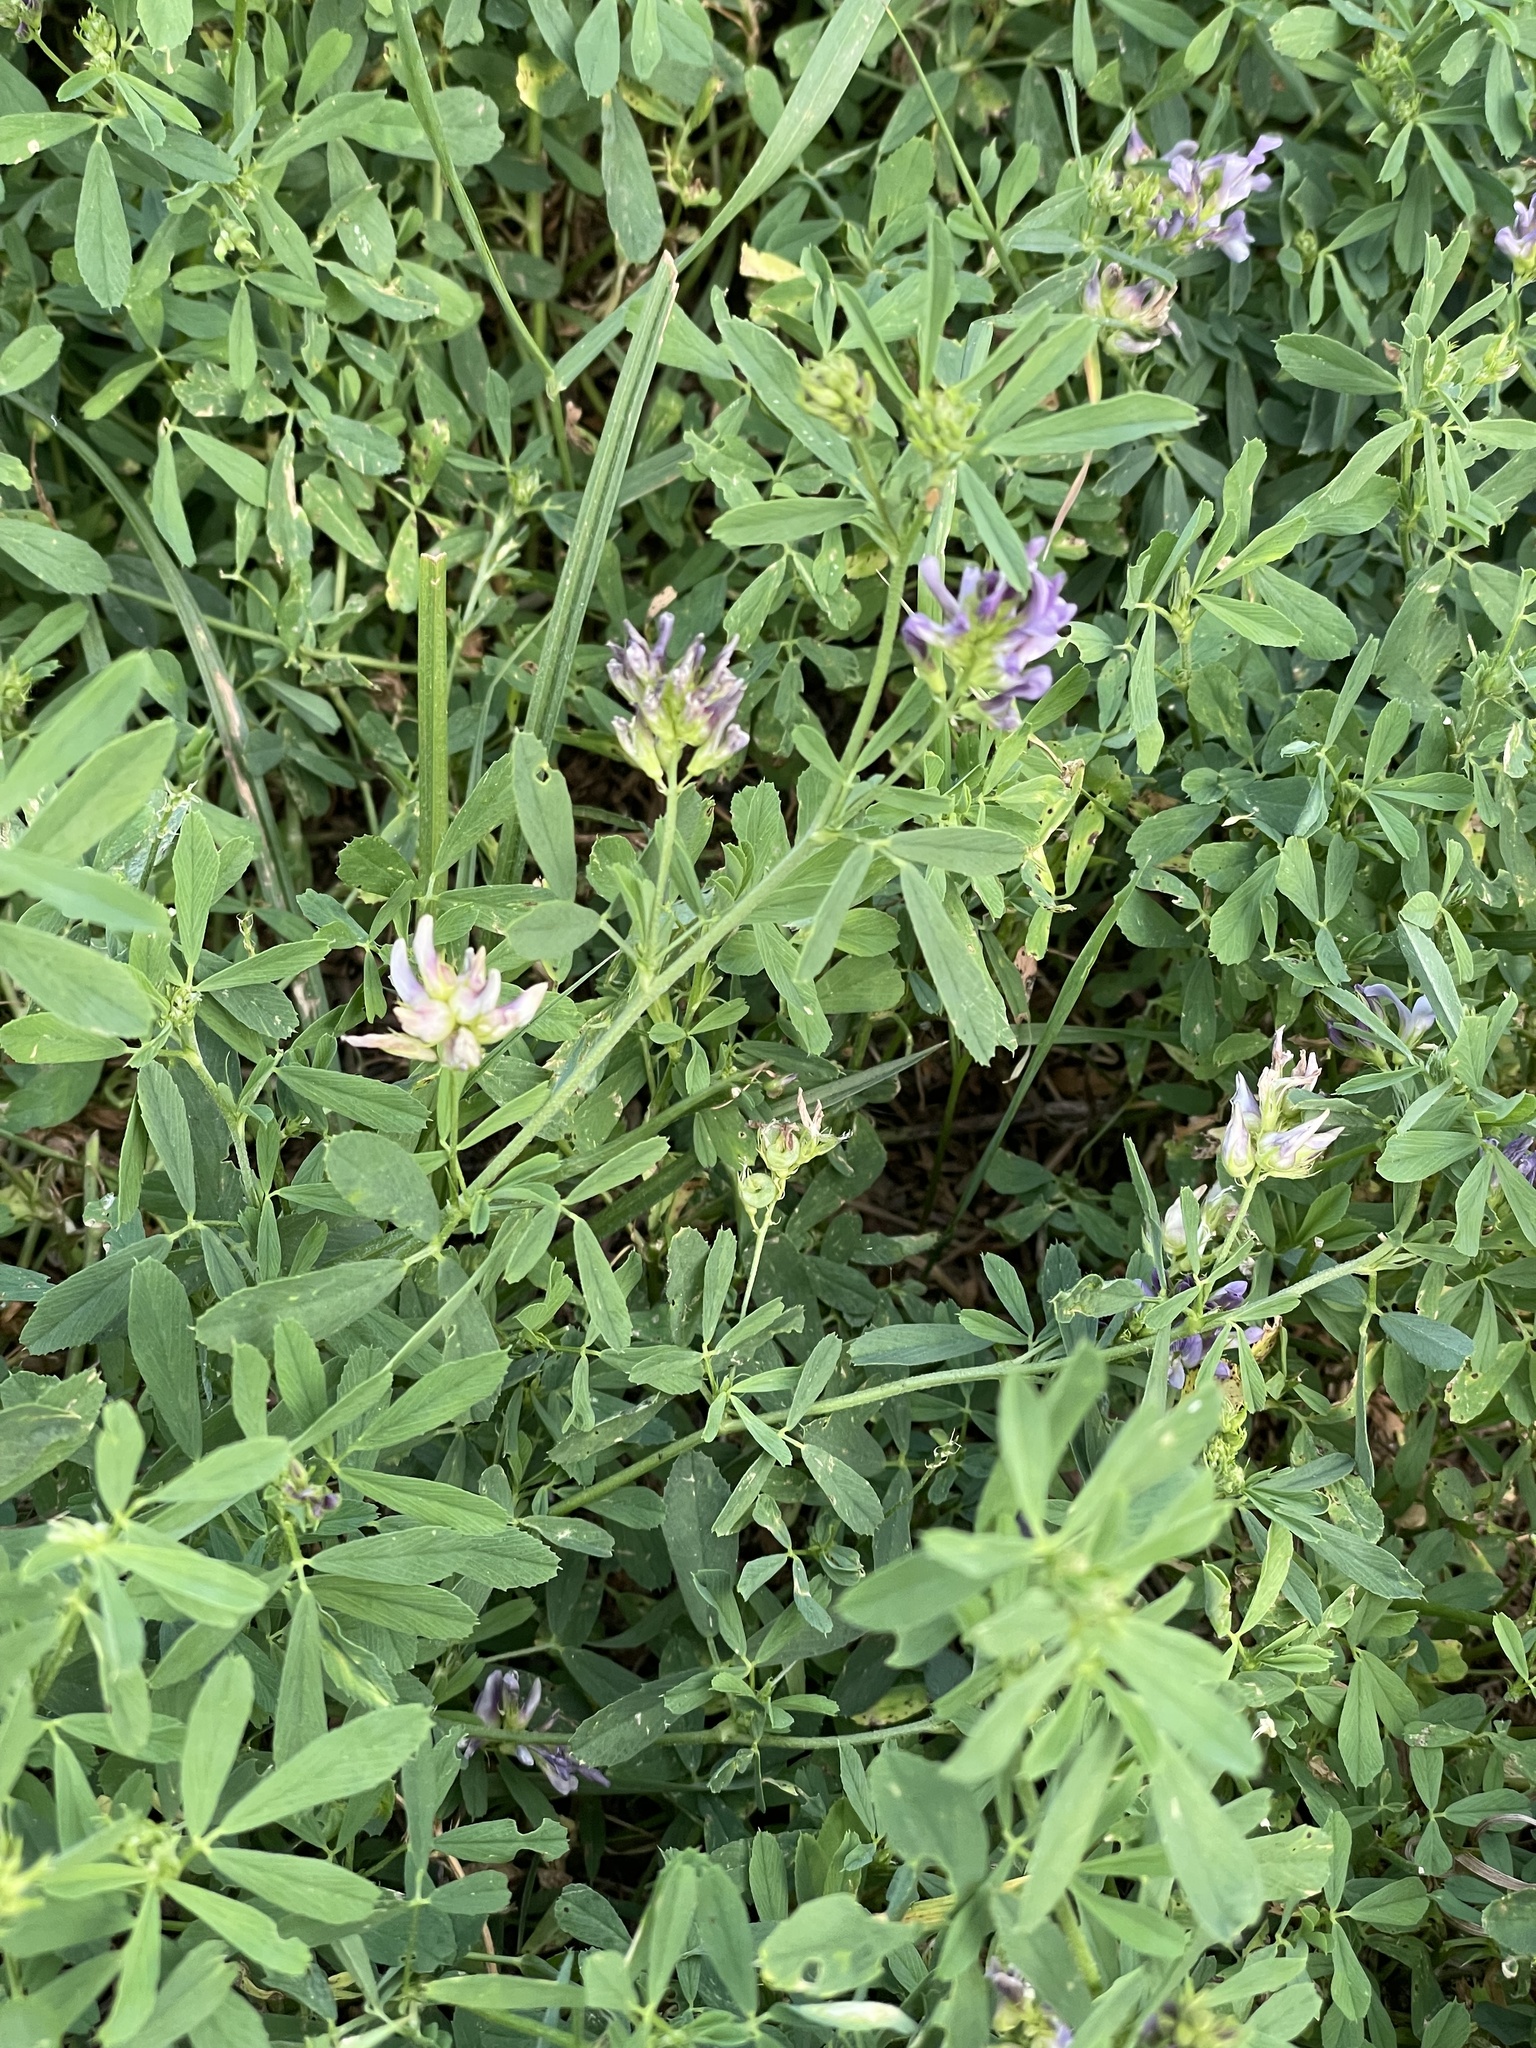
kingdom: Plantae
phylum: Tracheophyta
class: Magnoliopsida
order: Fabales
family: Fabaceae
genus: Medicago
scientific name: Medicago sativa
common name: Alfalfa
